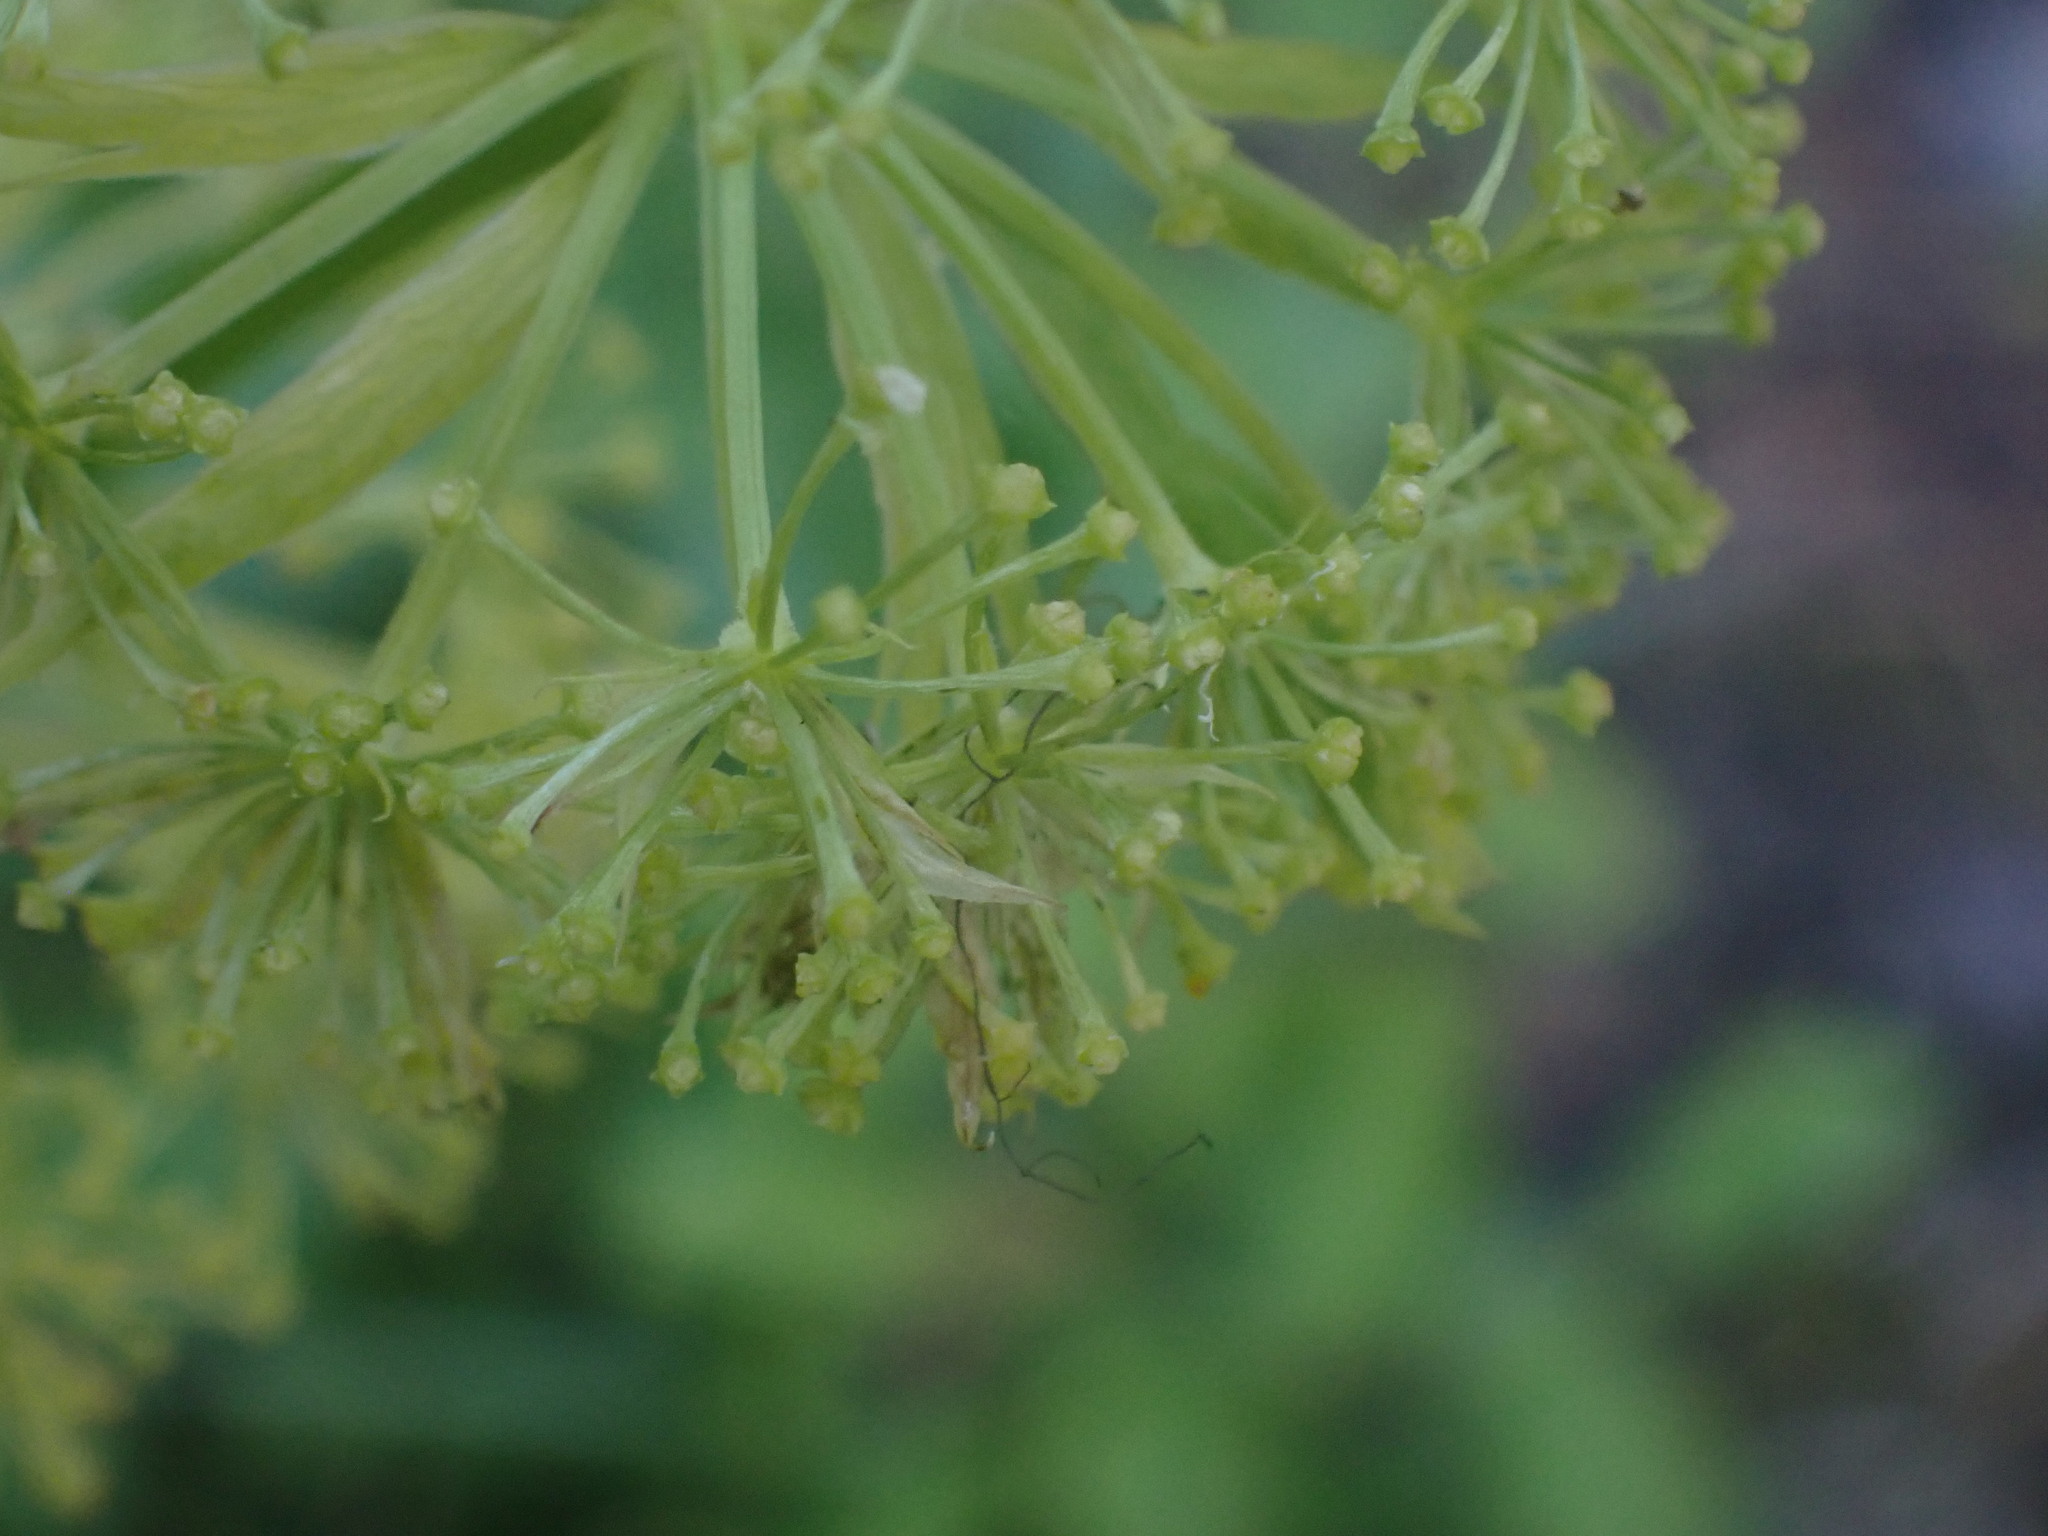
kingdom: Plantae
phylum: Tracheophyta
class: Magnoliopsida
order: Apiales
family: Apiaceae
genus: Angelica
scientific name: Angelica dawsonii
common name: Dawson's angelica
